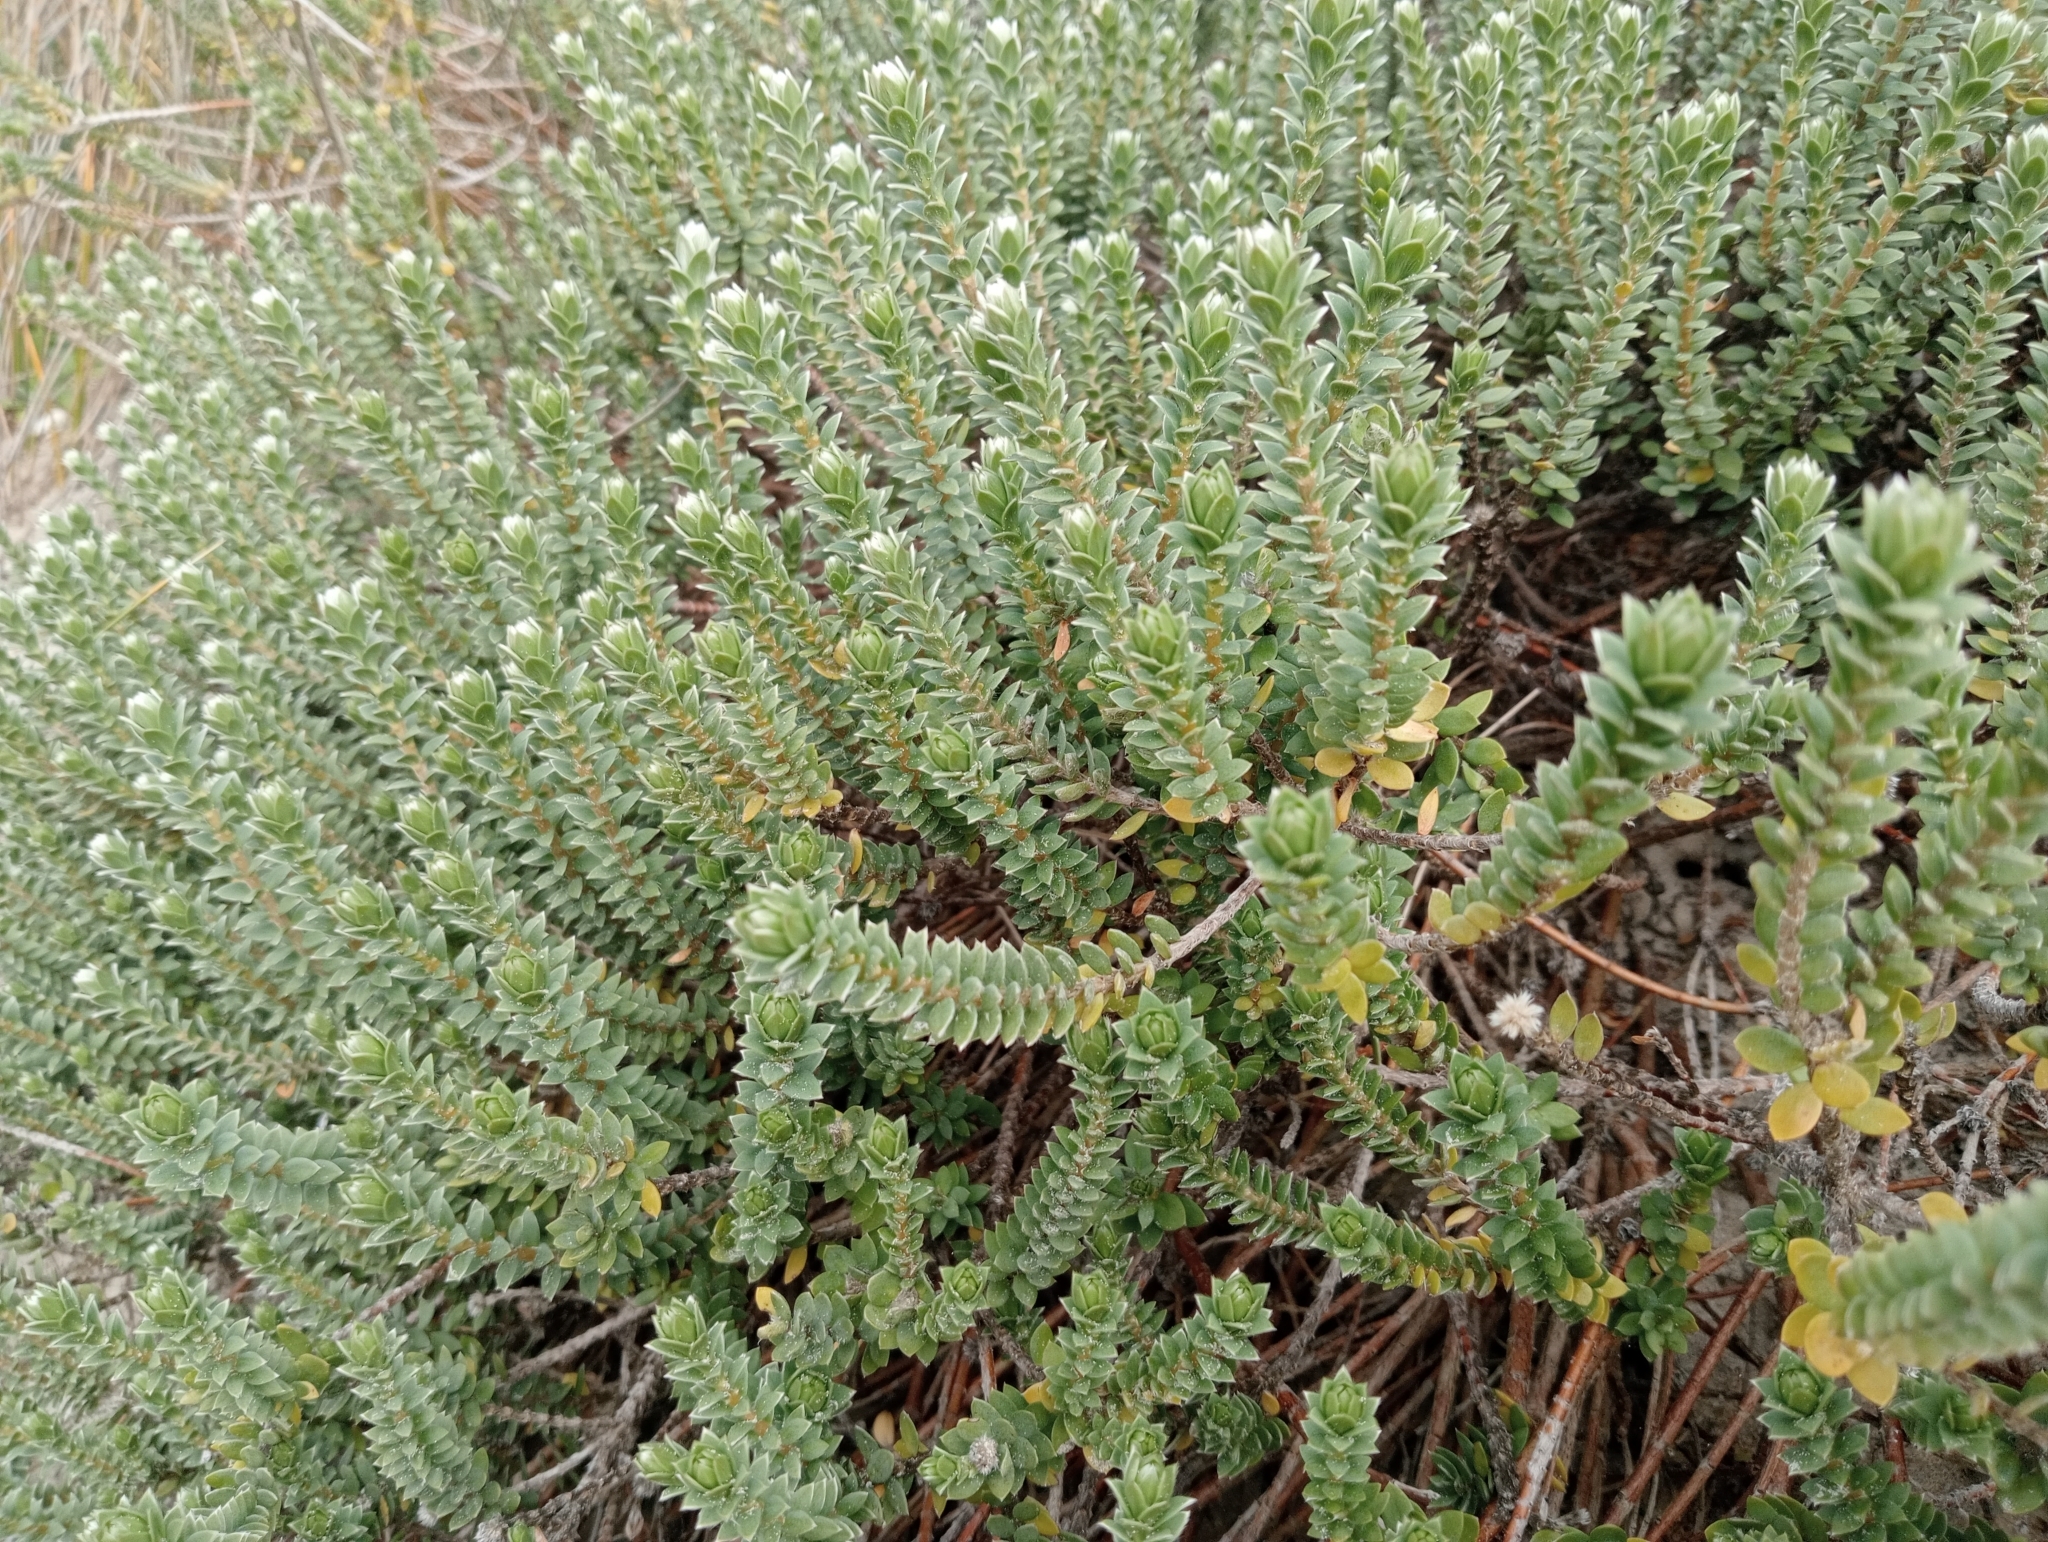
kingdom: Plantae
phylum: Tracheophyta
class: Magnoliopsida
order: Malvales
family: Thymelaeaceae
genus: Pimelea
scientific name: Pimelea villosa
